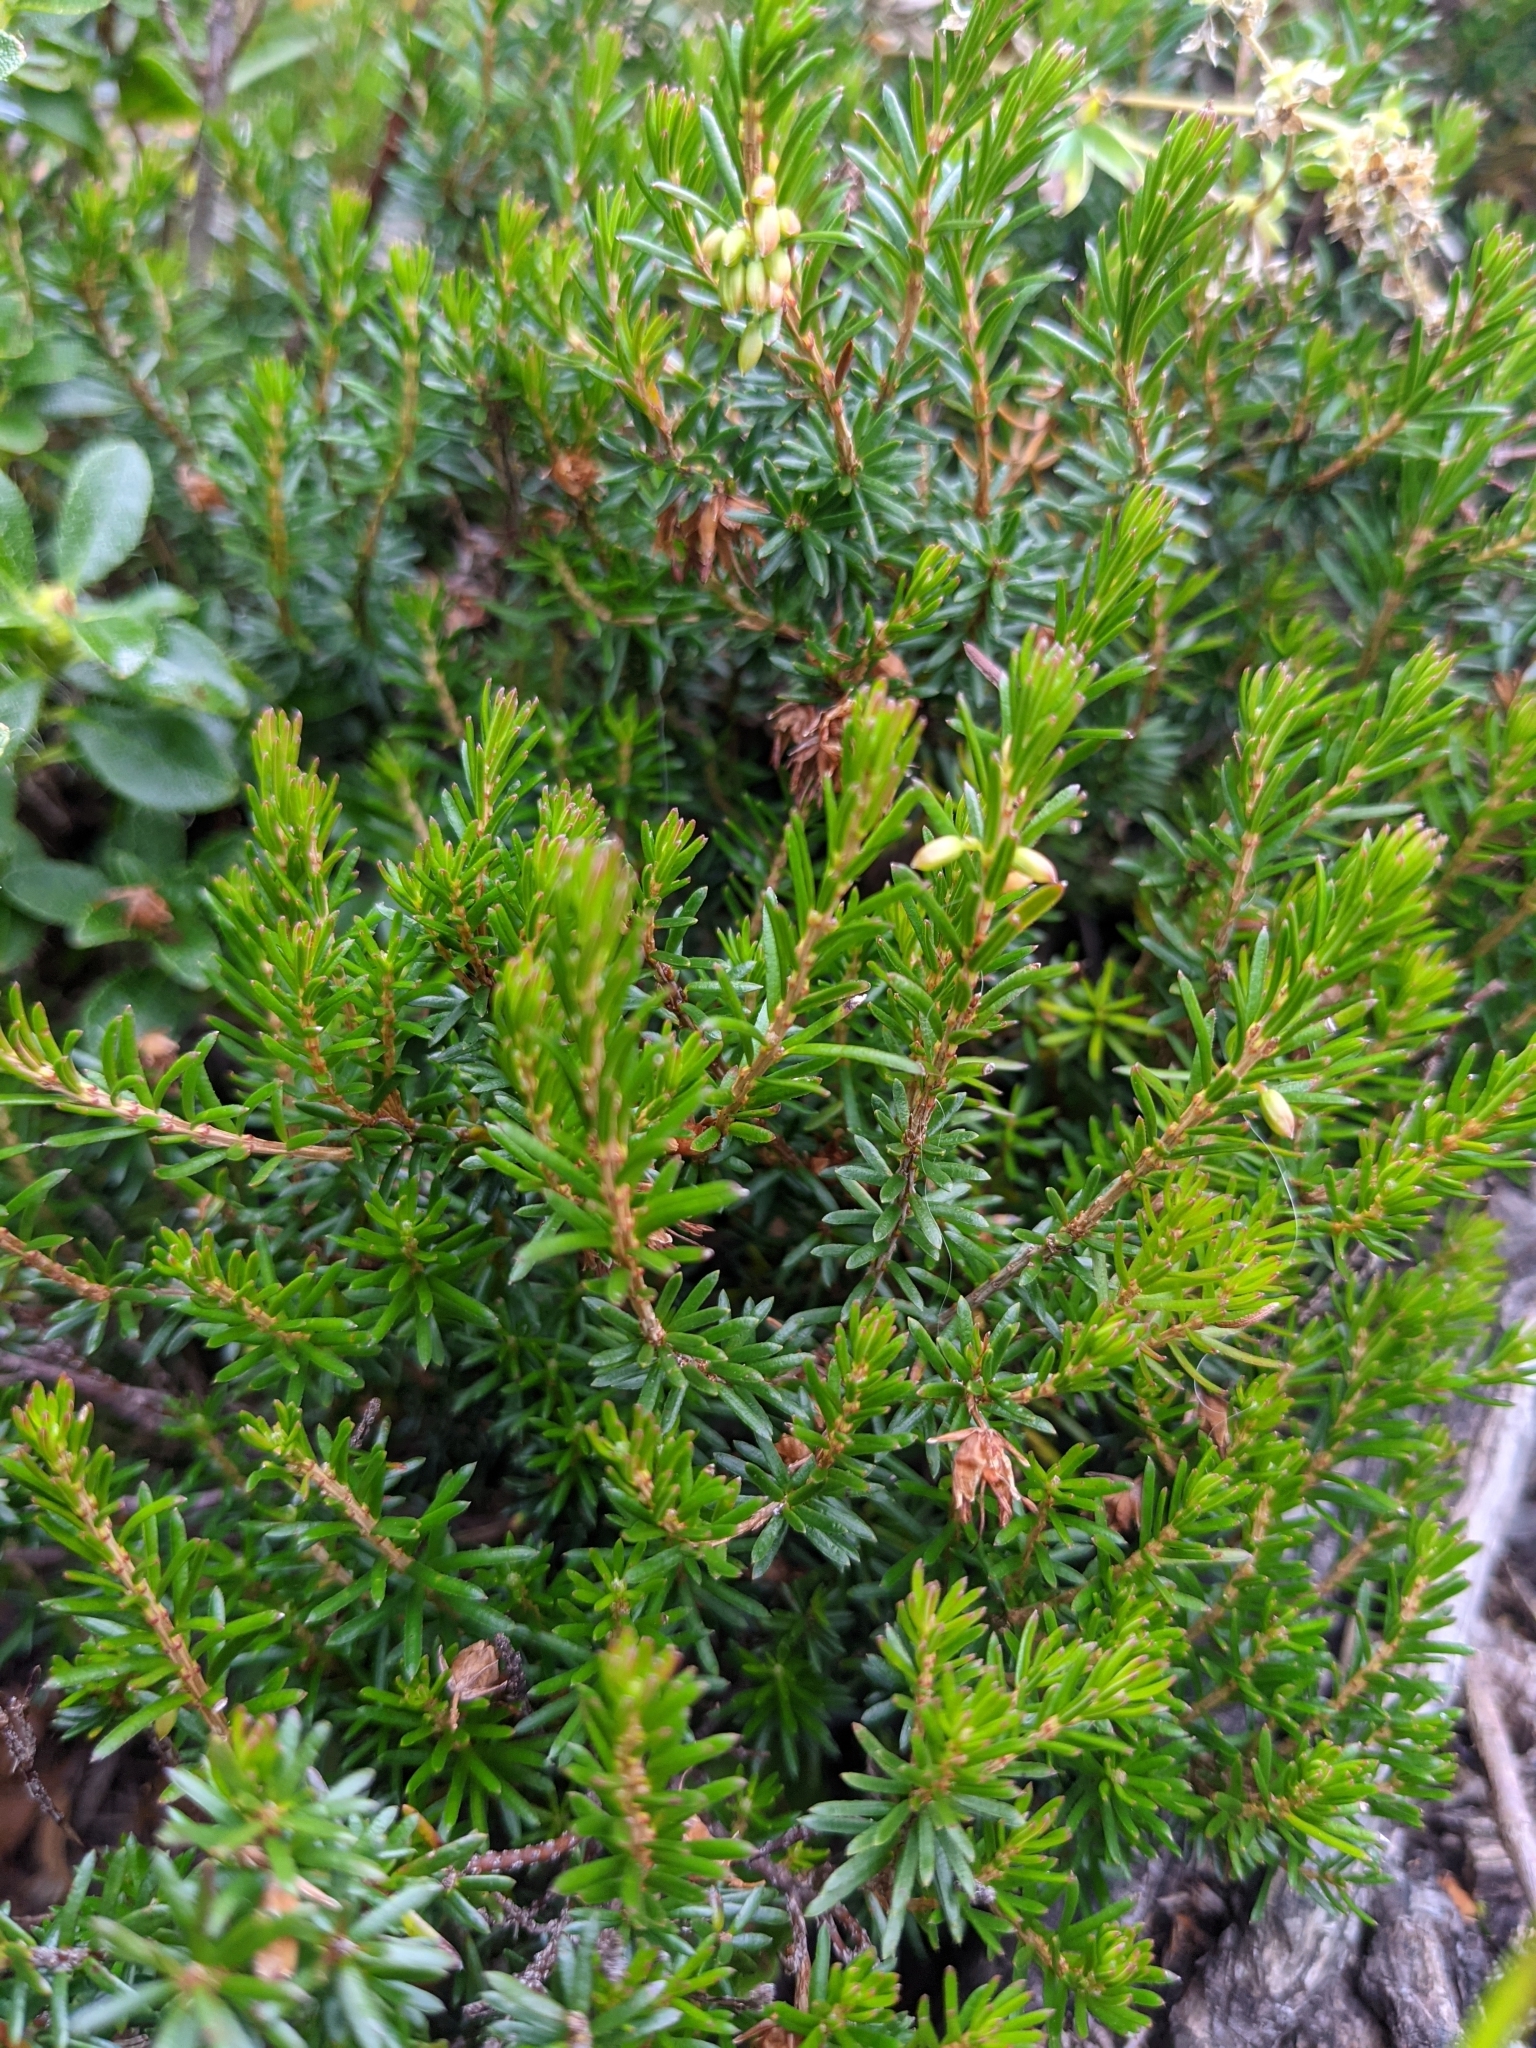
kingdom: Plantae
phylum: Tracheophyta
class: Magnoliopsida
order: Ericales
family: Ericaceae
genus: Erica
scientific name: Erica carnea
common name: Winter heath
